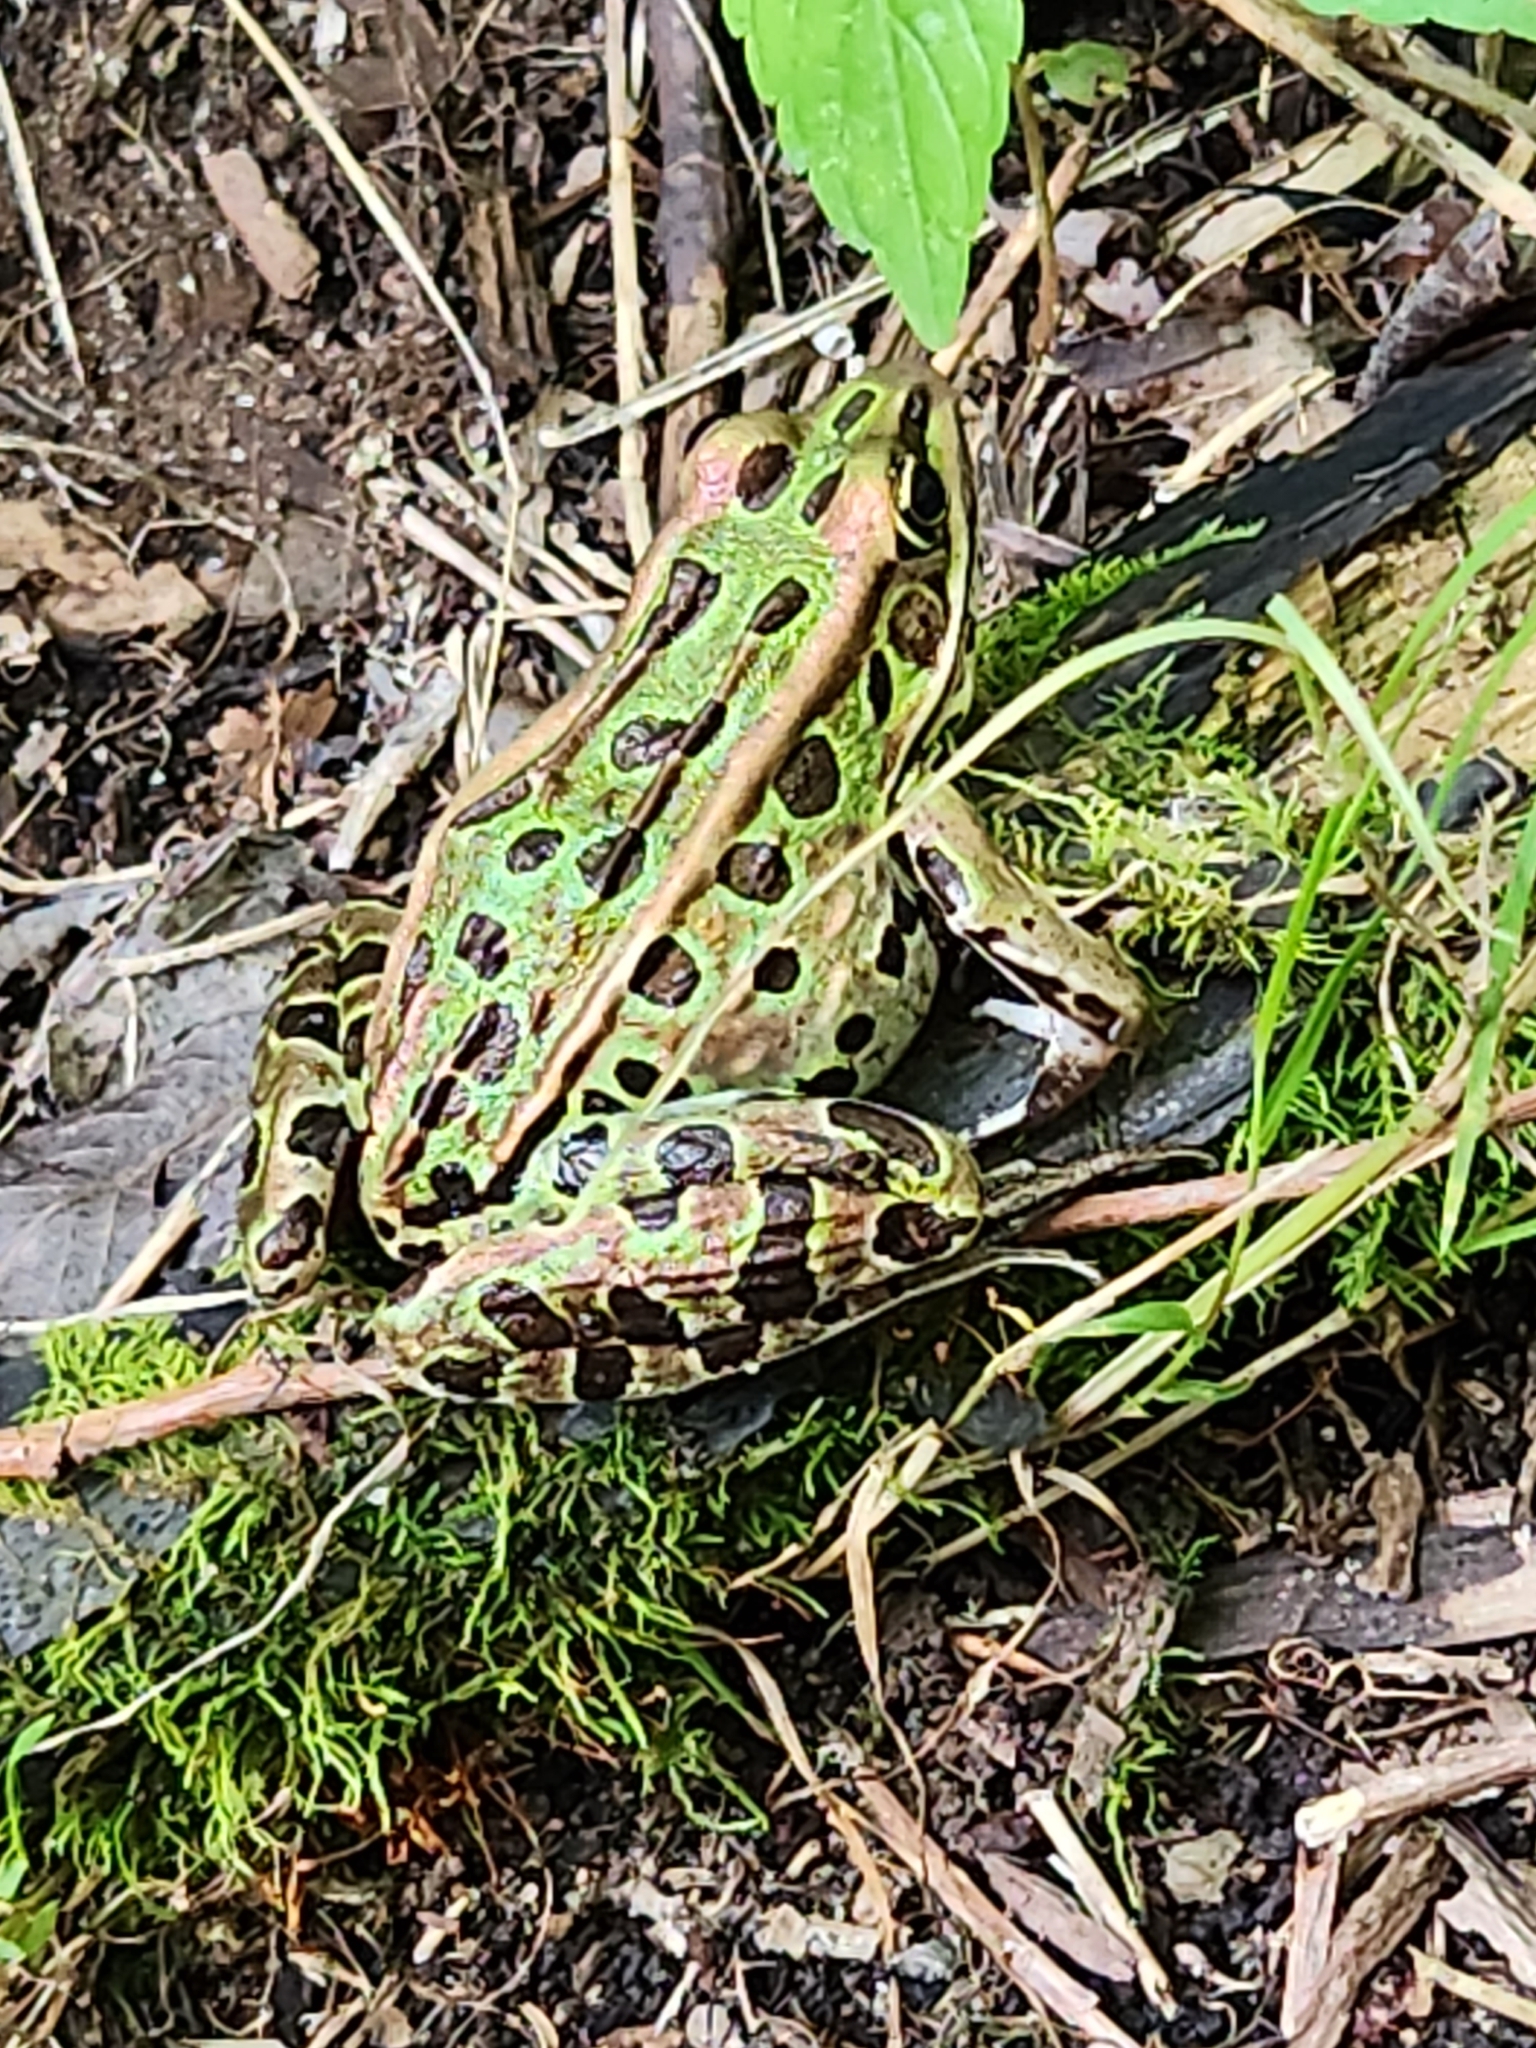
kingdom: Animalia
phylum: Chordata
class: Amphibia
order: Anura
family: Ranidae
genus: Lithobates
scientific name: Lithobates pipiens
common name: Northern leopard frog
